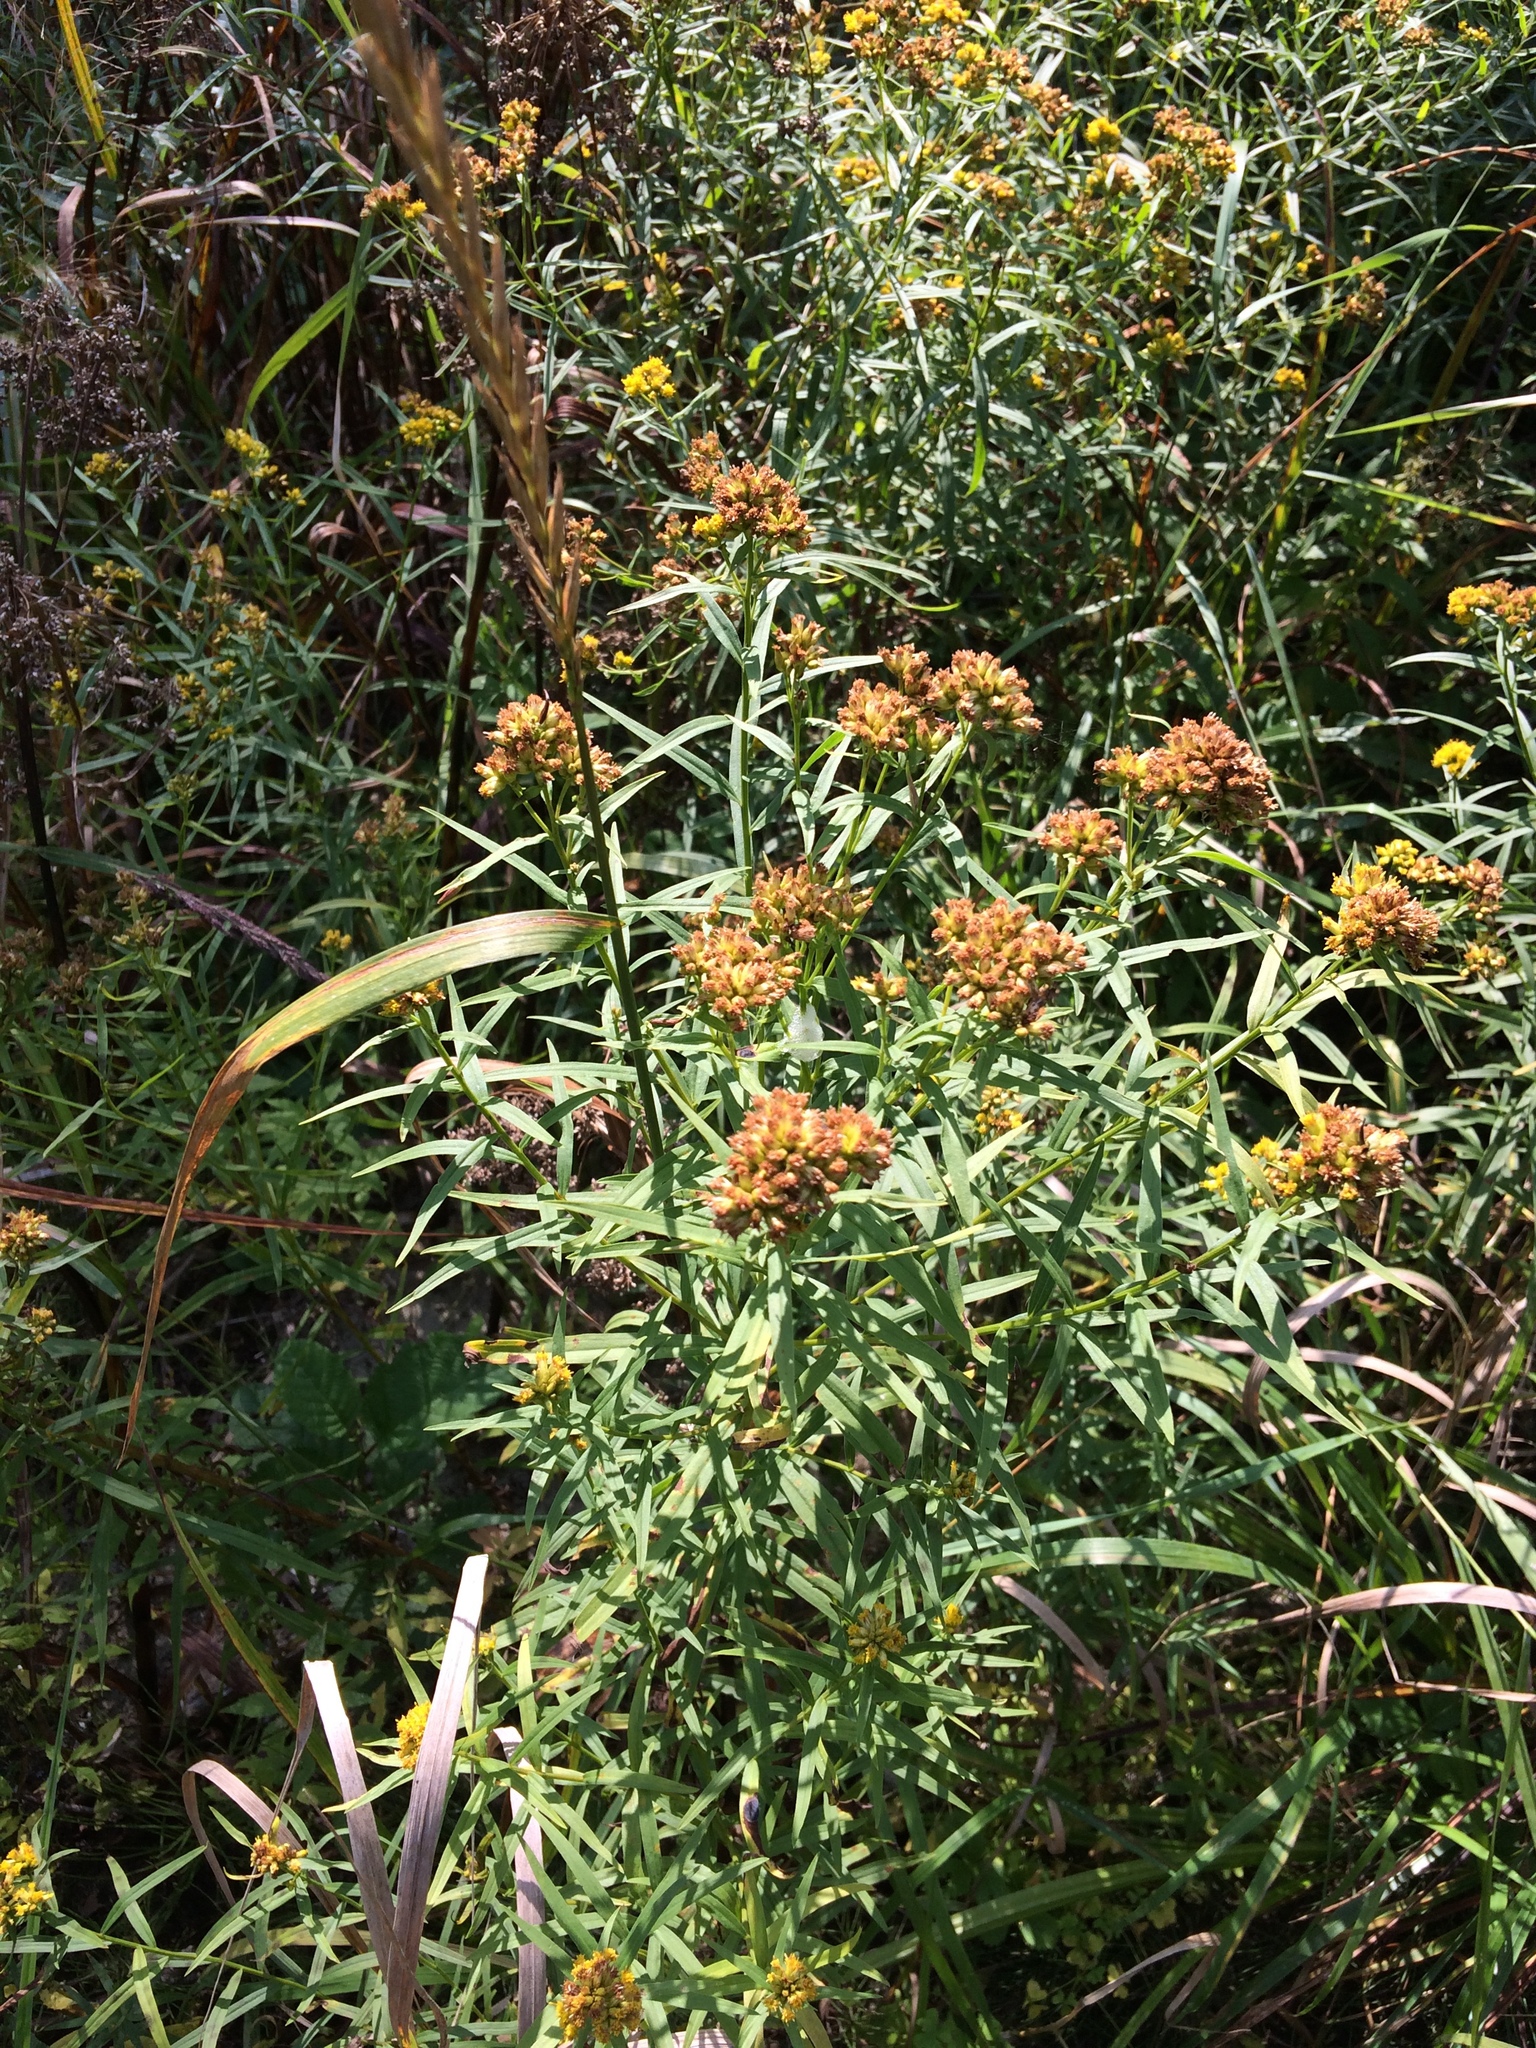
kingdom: Plantae
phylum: Tracheophyta
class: Magnoliopsida
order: Asterales
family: Asteraceae
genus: Euthamia
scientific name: Euthamia graminifolia
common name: Common goldentop
